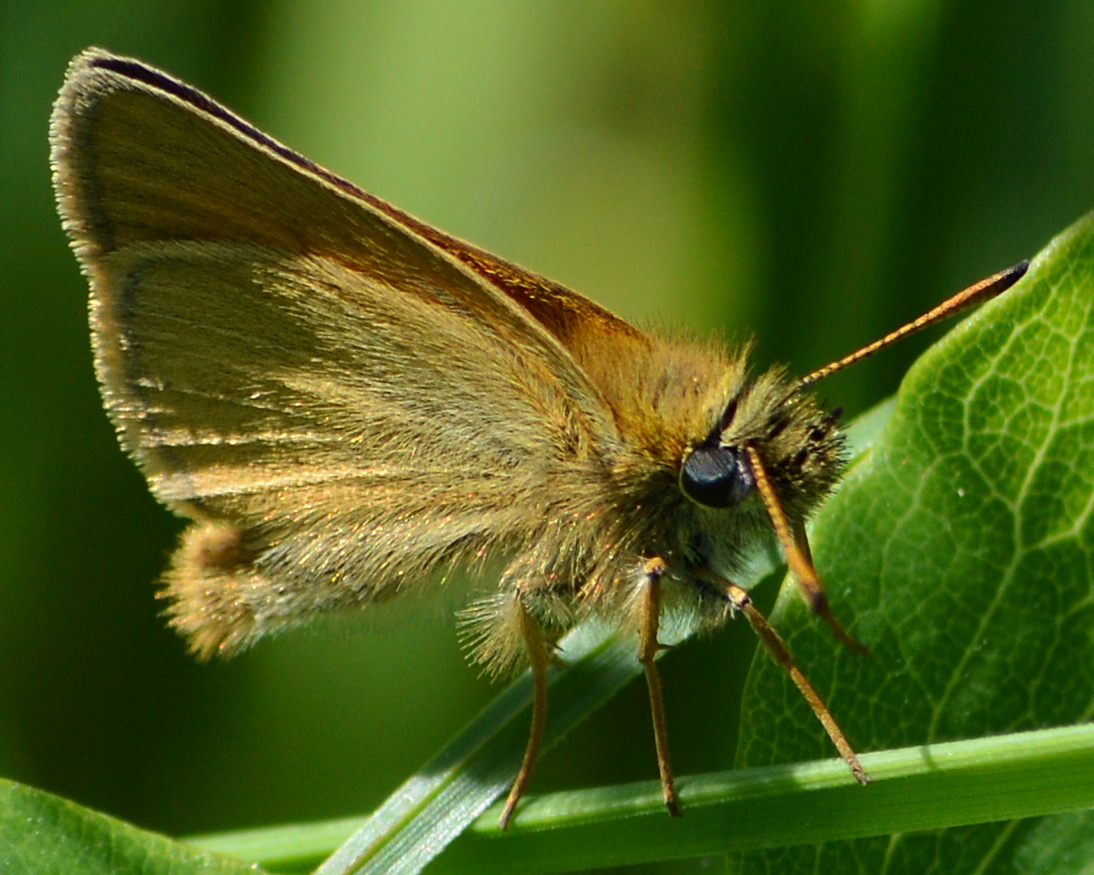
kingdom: Animalia
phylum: Arthropoda
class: Insecta
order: Lepidoptera
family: Hesperiidae
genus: Thymelicus
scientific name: Thymelicus lineola
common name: Essex skipper
